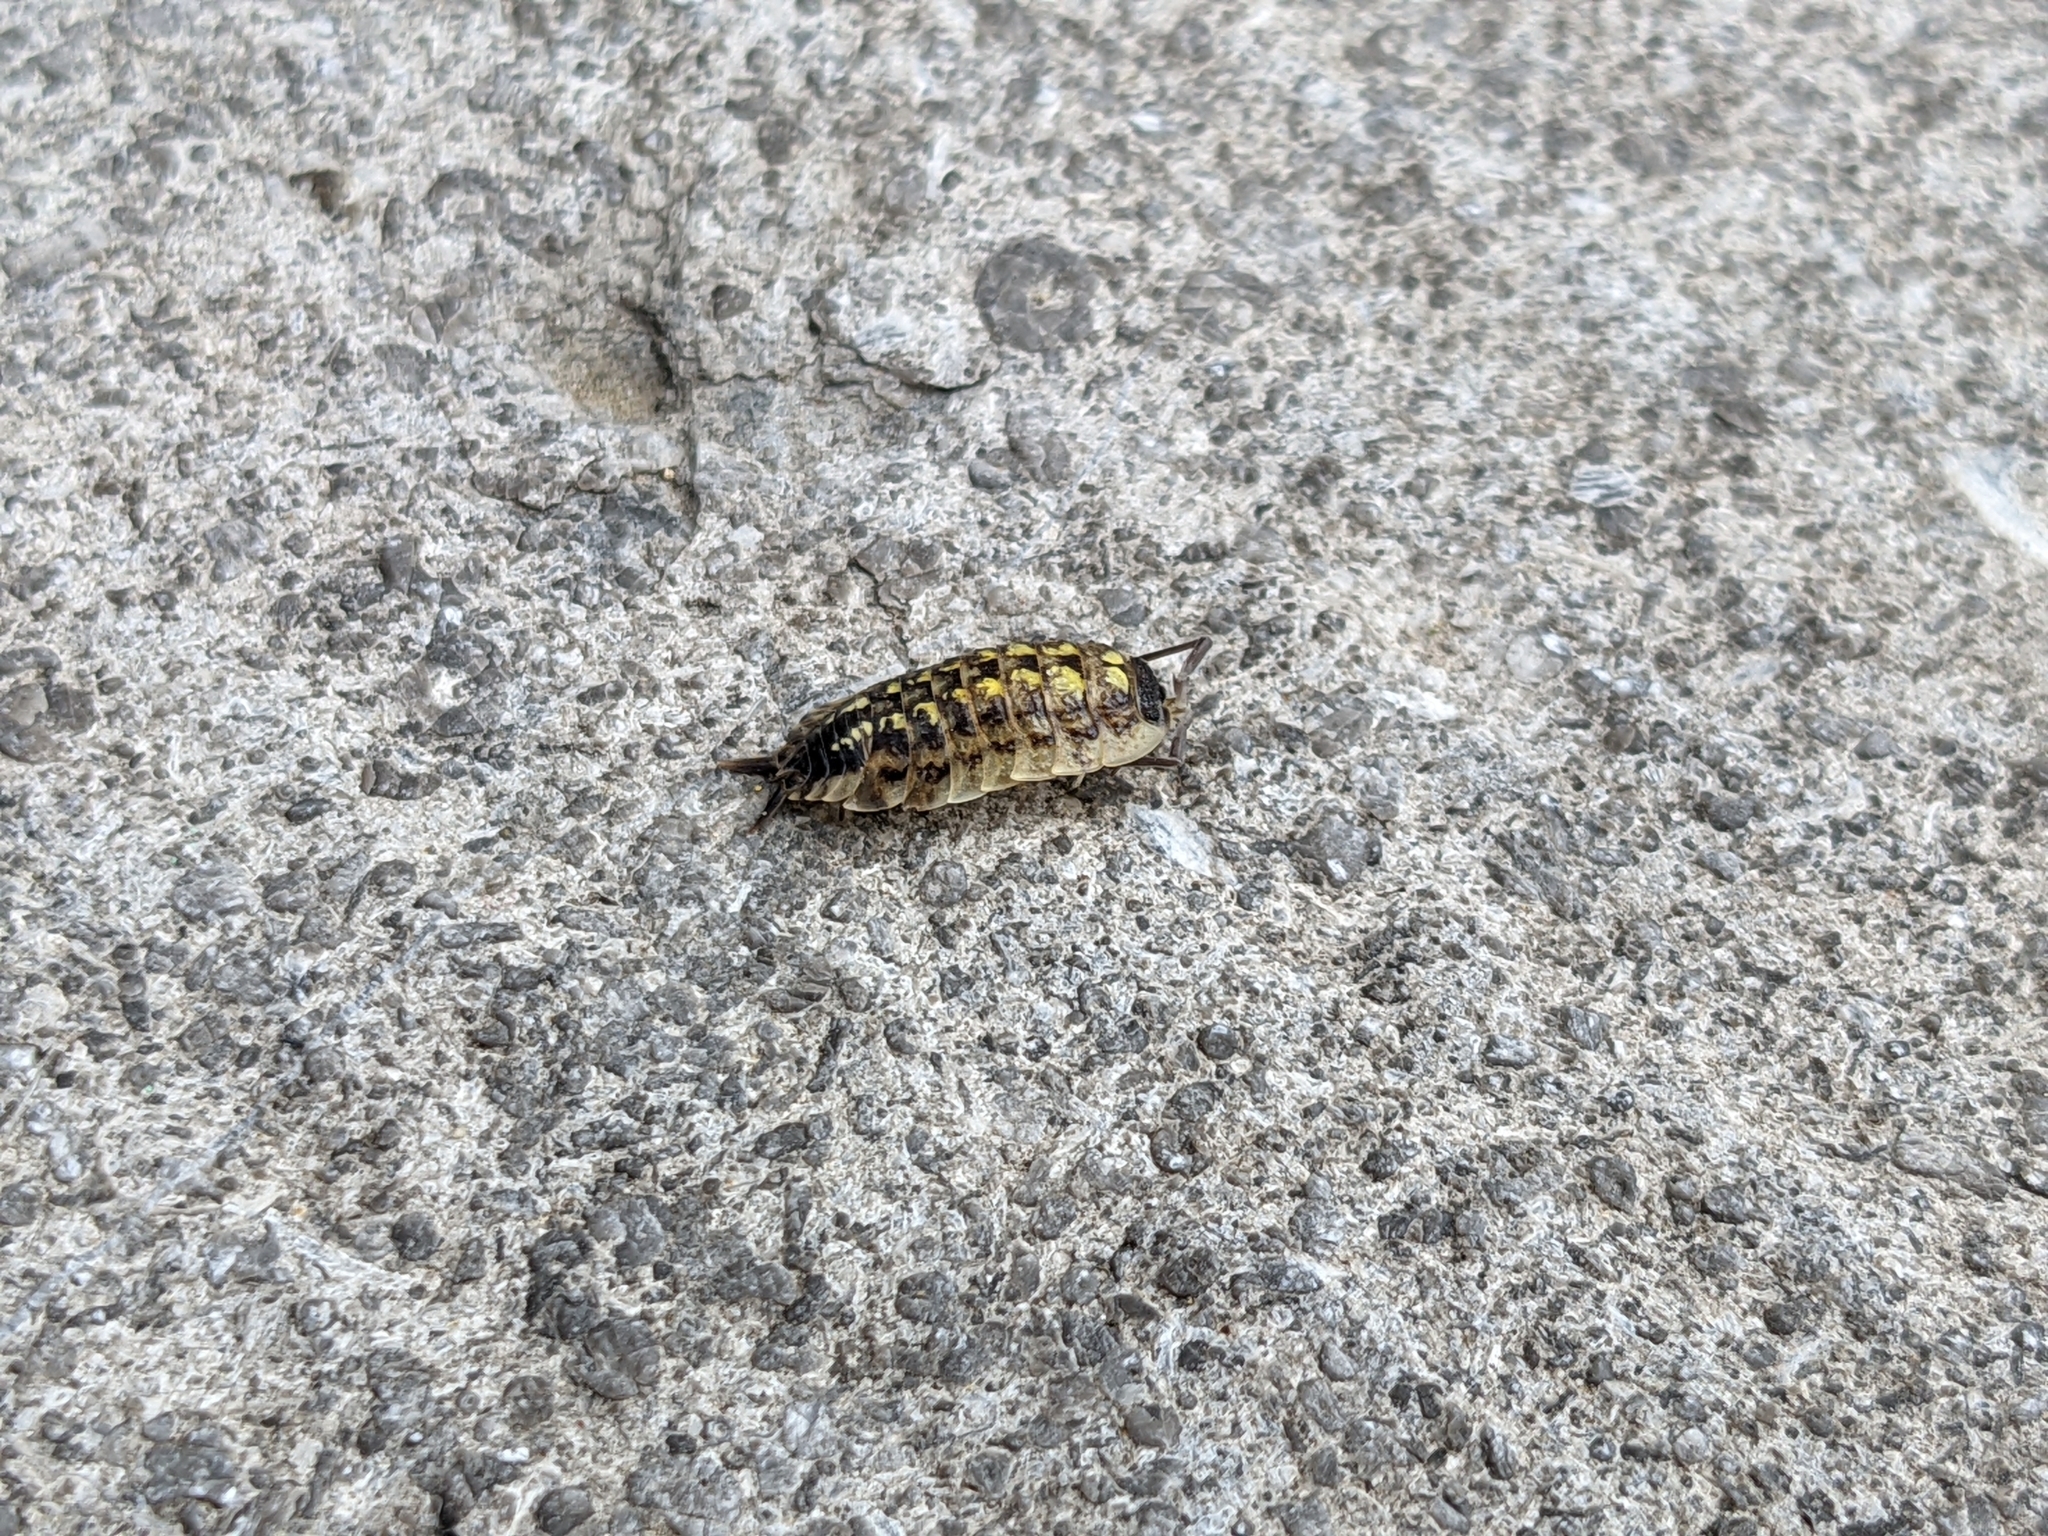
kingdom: Animalia
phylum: Arthropoda
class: Malacostraca
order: Isopoda
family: Porcellionidae
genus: Porcellio
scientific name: Porcellio spinicornis
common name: Painted woodlouse
